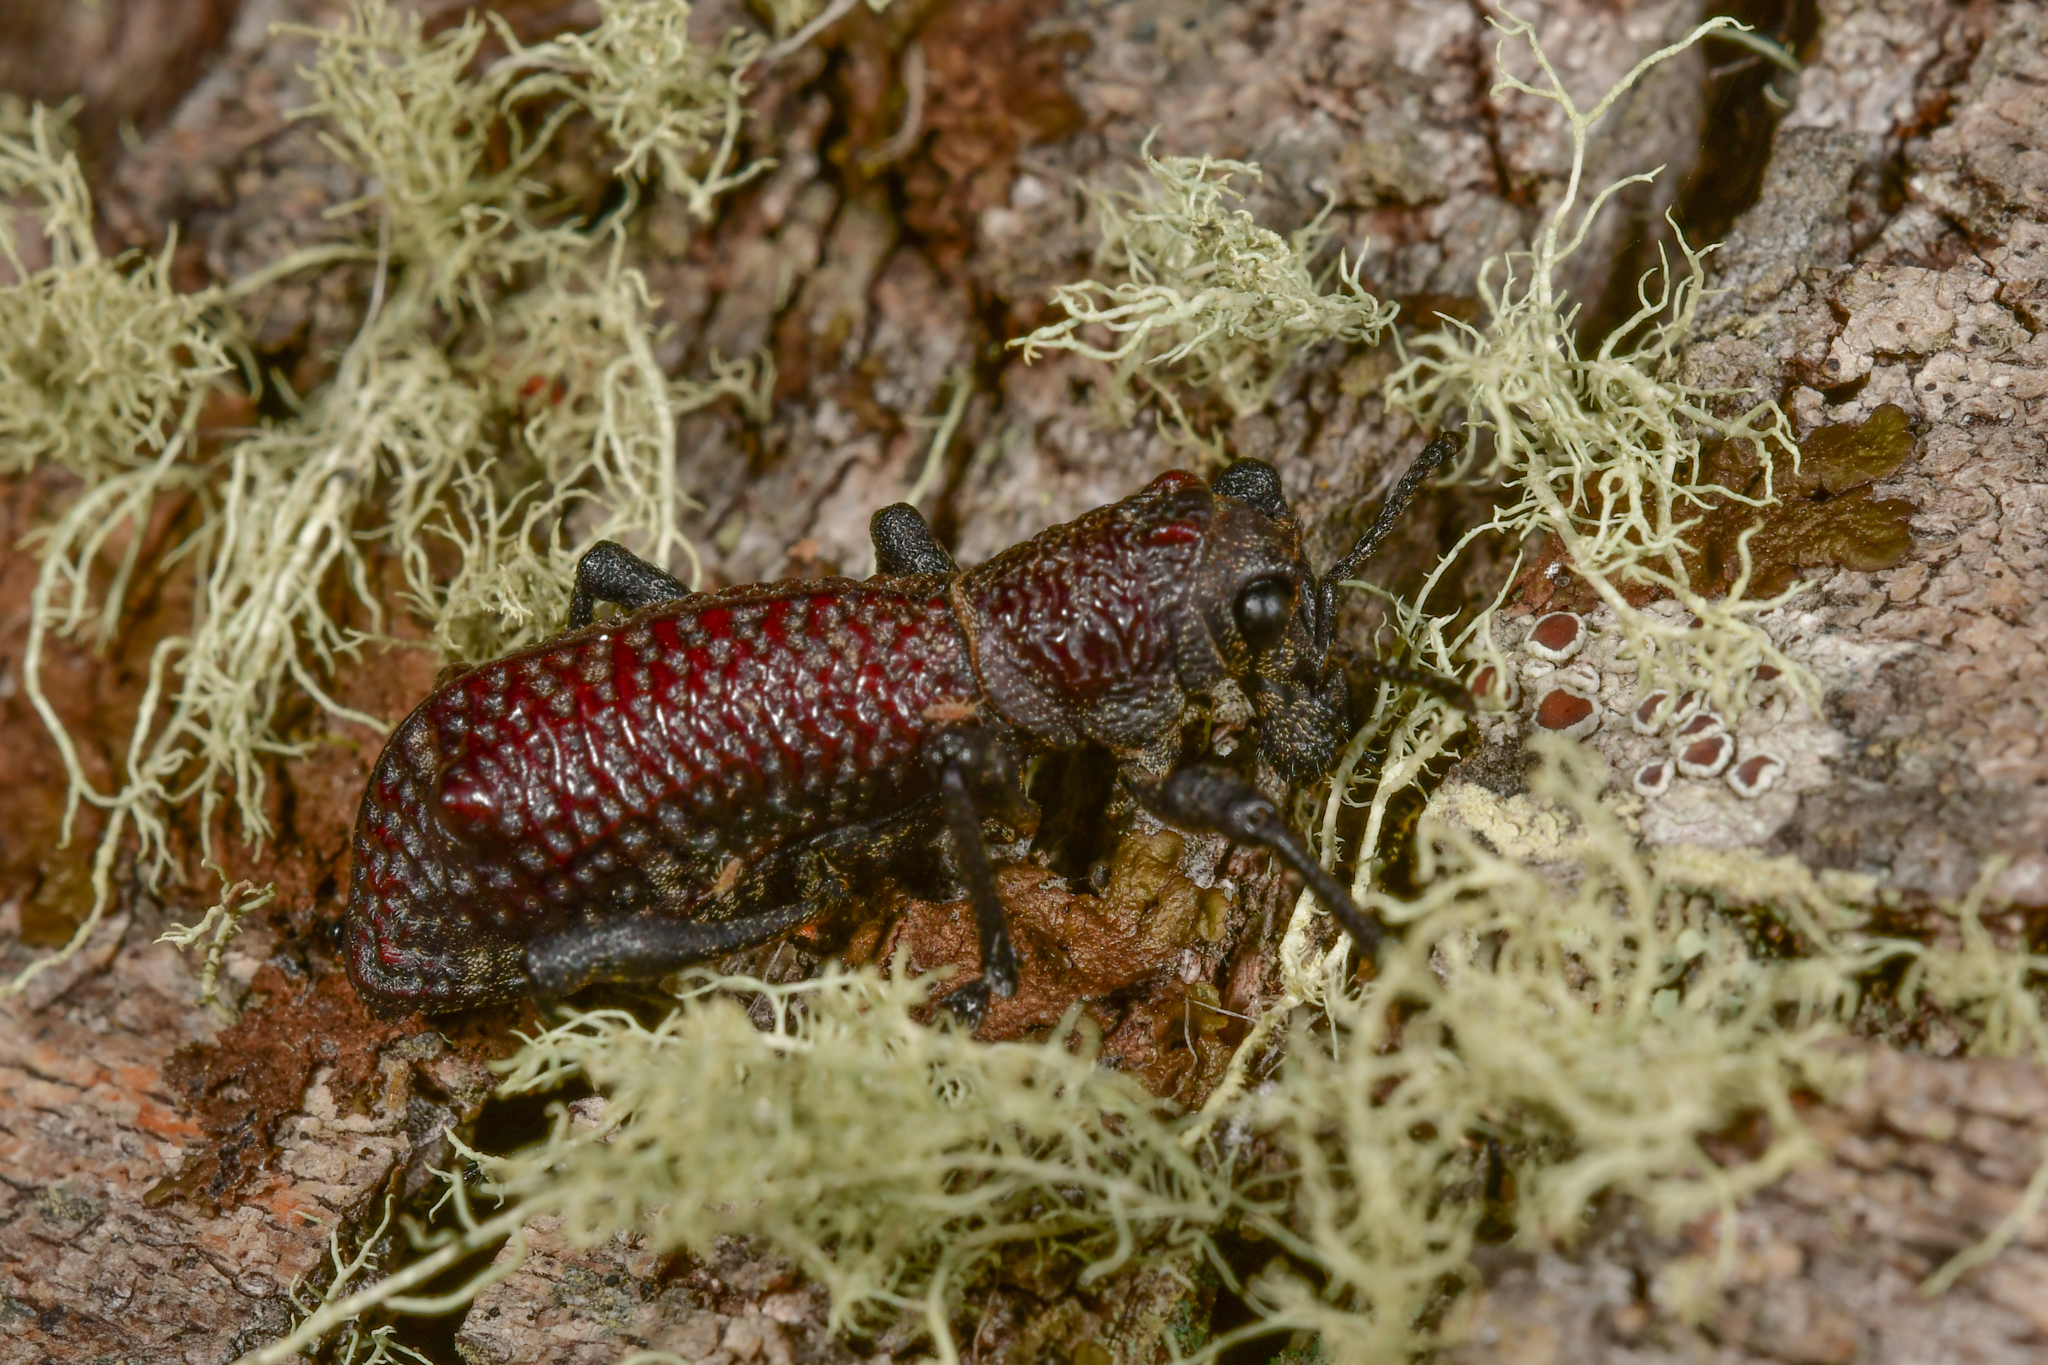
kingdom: Animalia
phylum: Arthropoda
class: Insecta
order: Coleoptera
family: Curculionidae
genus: Aegorhinus
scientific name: Aegorhinus vitulus
